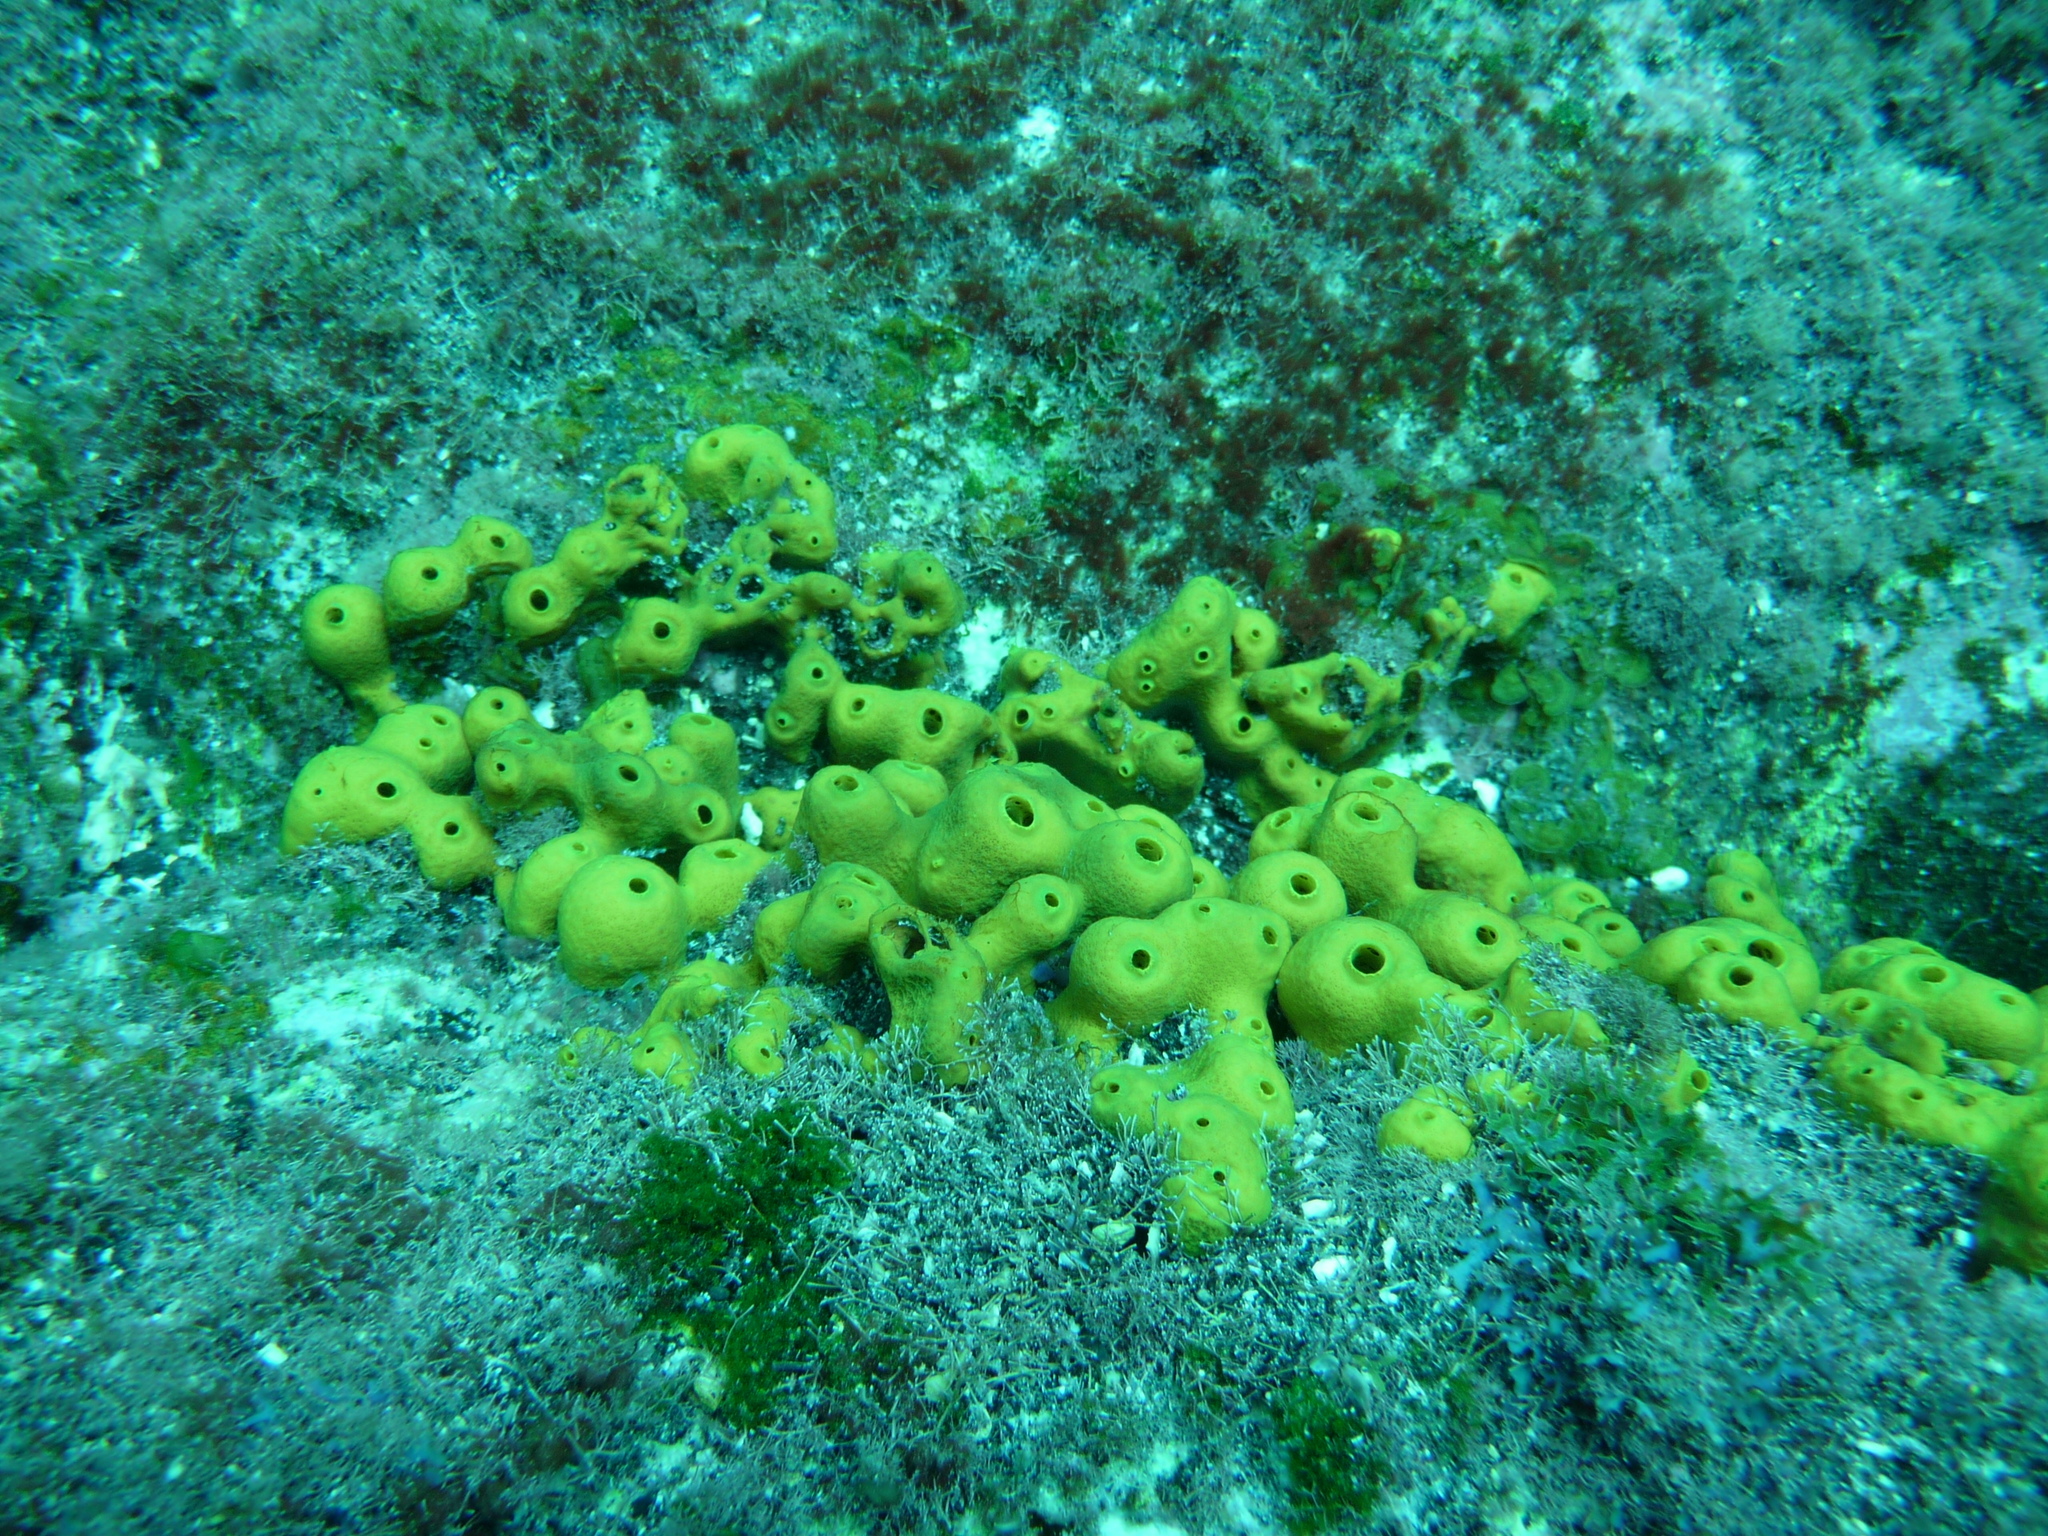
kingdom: Animalia
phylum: Porifera
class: Demospongiae
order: Verongiida
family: Aplysinidae
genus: Aplysina
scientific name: Aplysina aerophoba
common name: Aureate sponge
